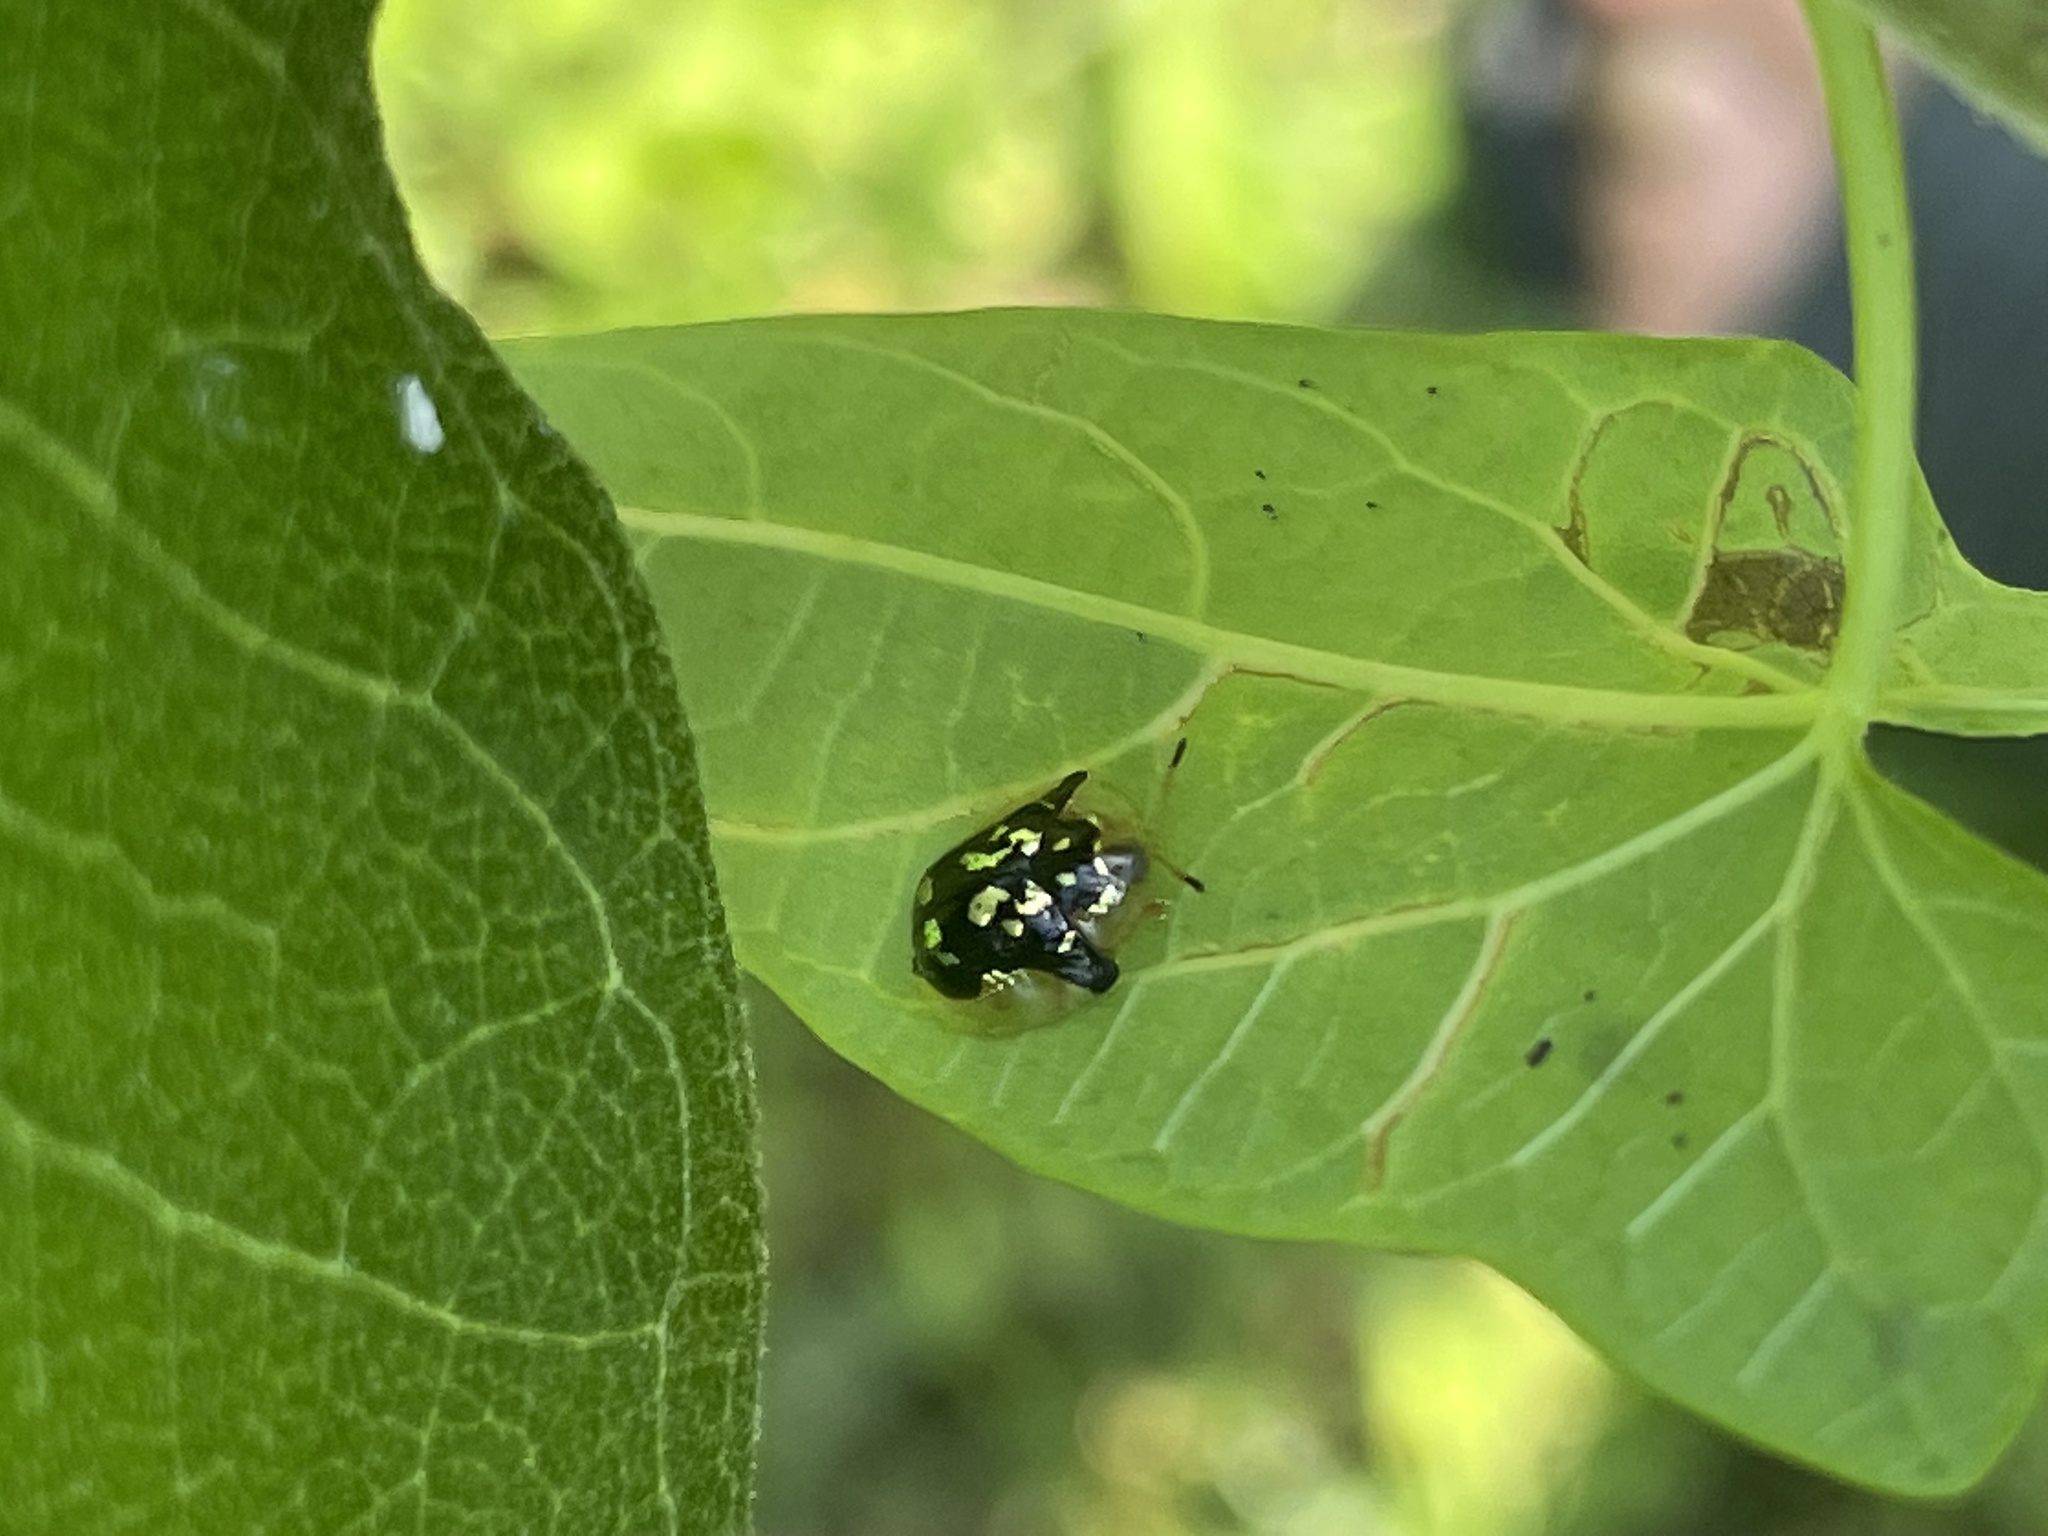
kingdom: Animalia
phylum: Arthropoda
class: Insecta
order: Coleoptera
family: Chrysomelidae
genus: Deloyala
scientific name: Deloyala guttata
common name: Mottled tortoise beetle
